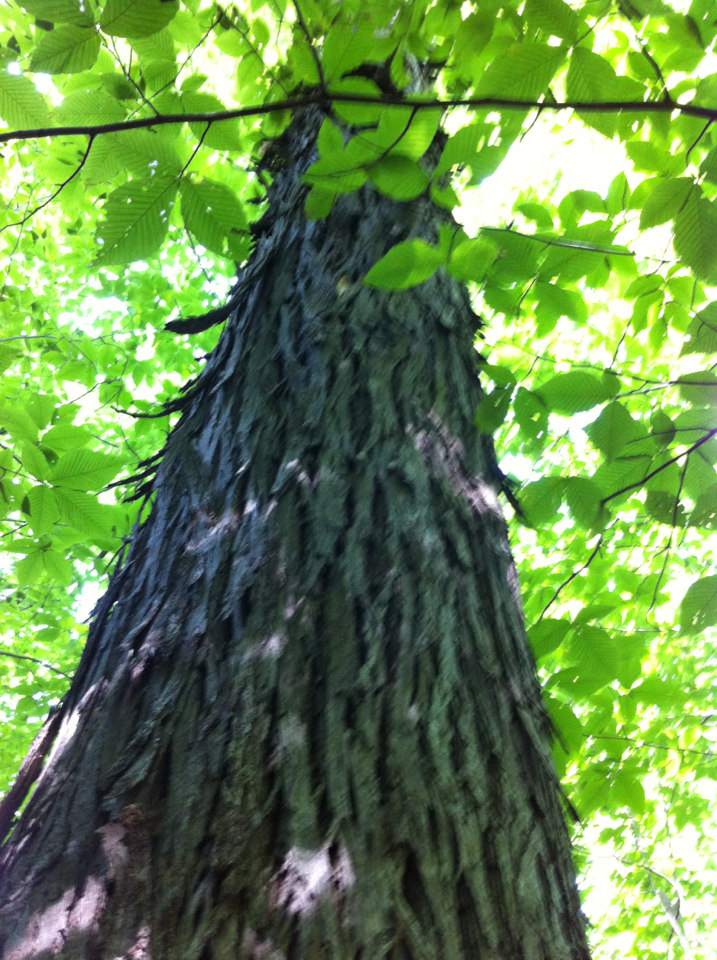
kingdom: Plantae
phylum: Tracheophyta
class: Magnoliopsida
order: Fagales
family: Juglandaceae
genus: Carya
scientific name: Carya ovata
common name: Shagbark hickory
